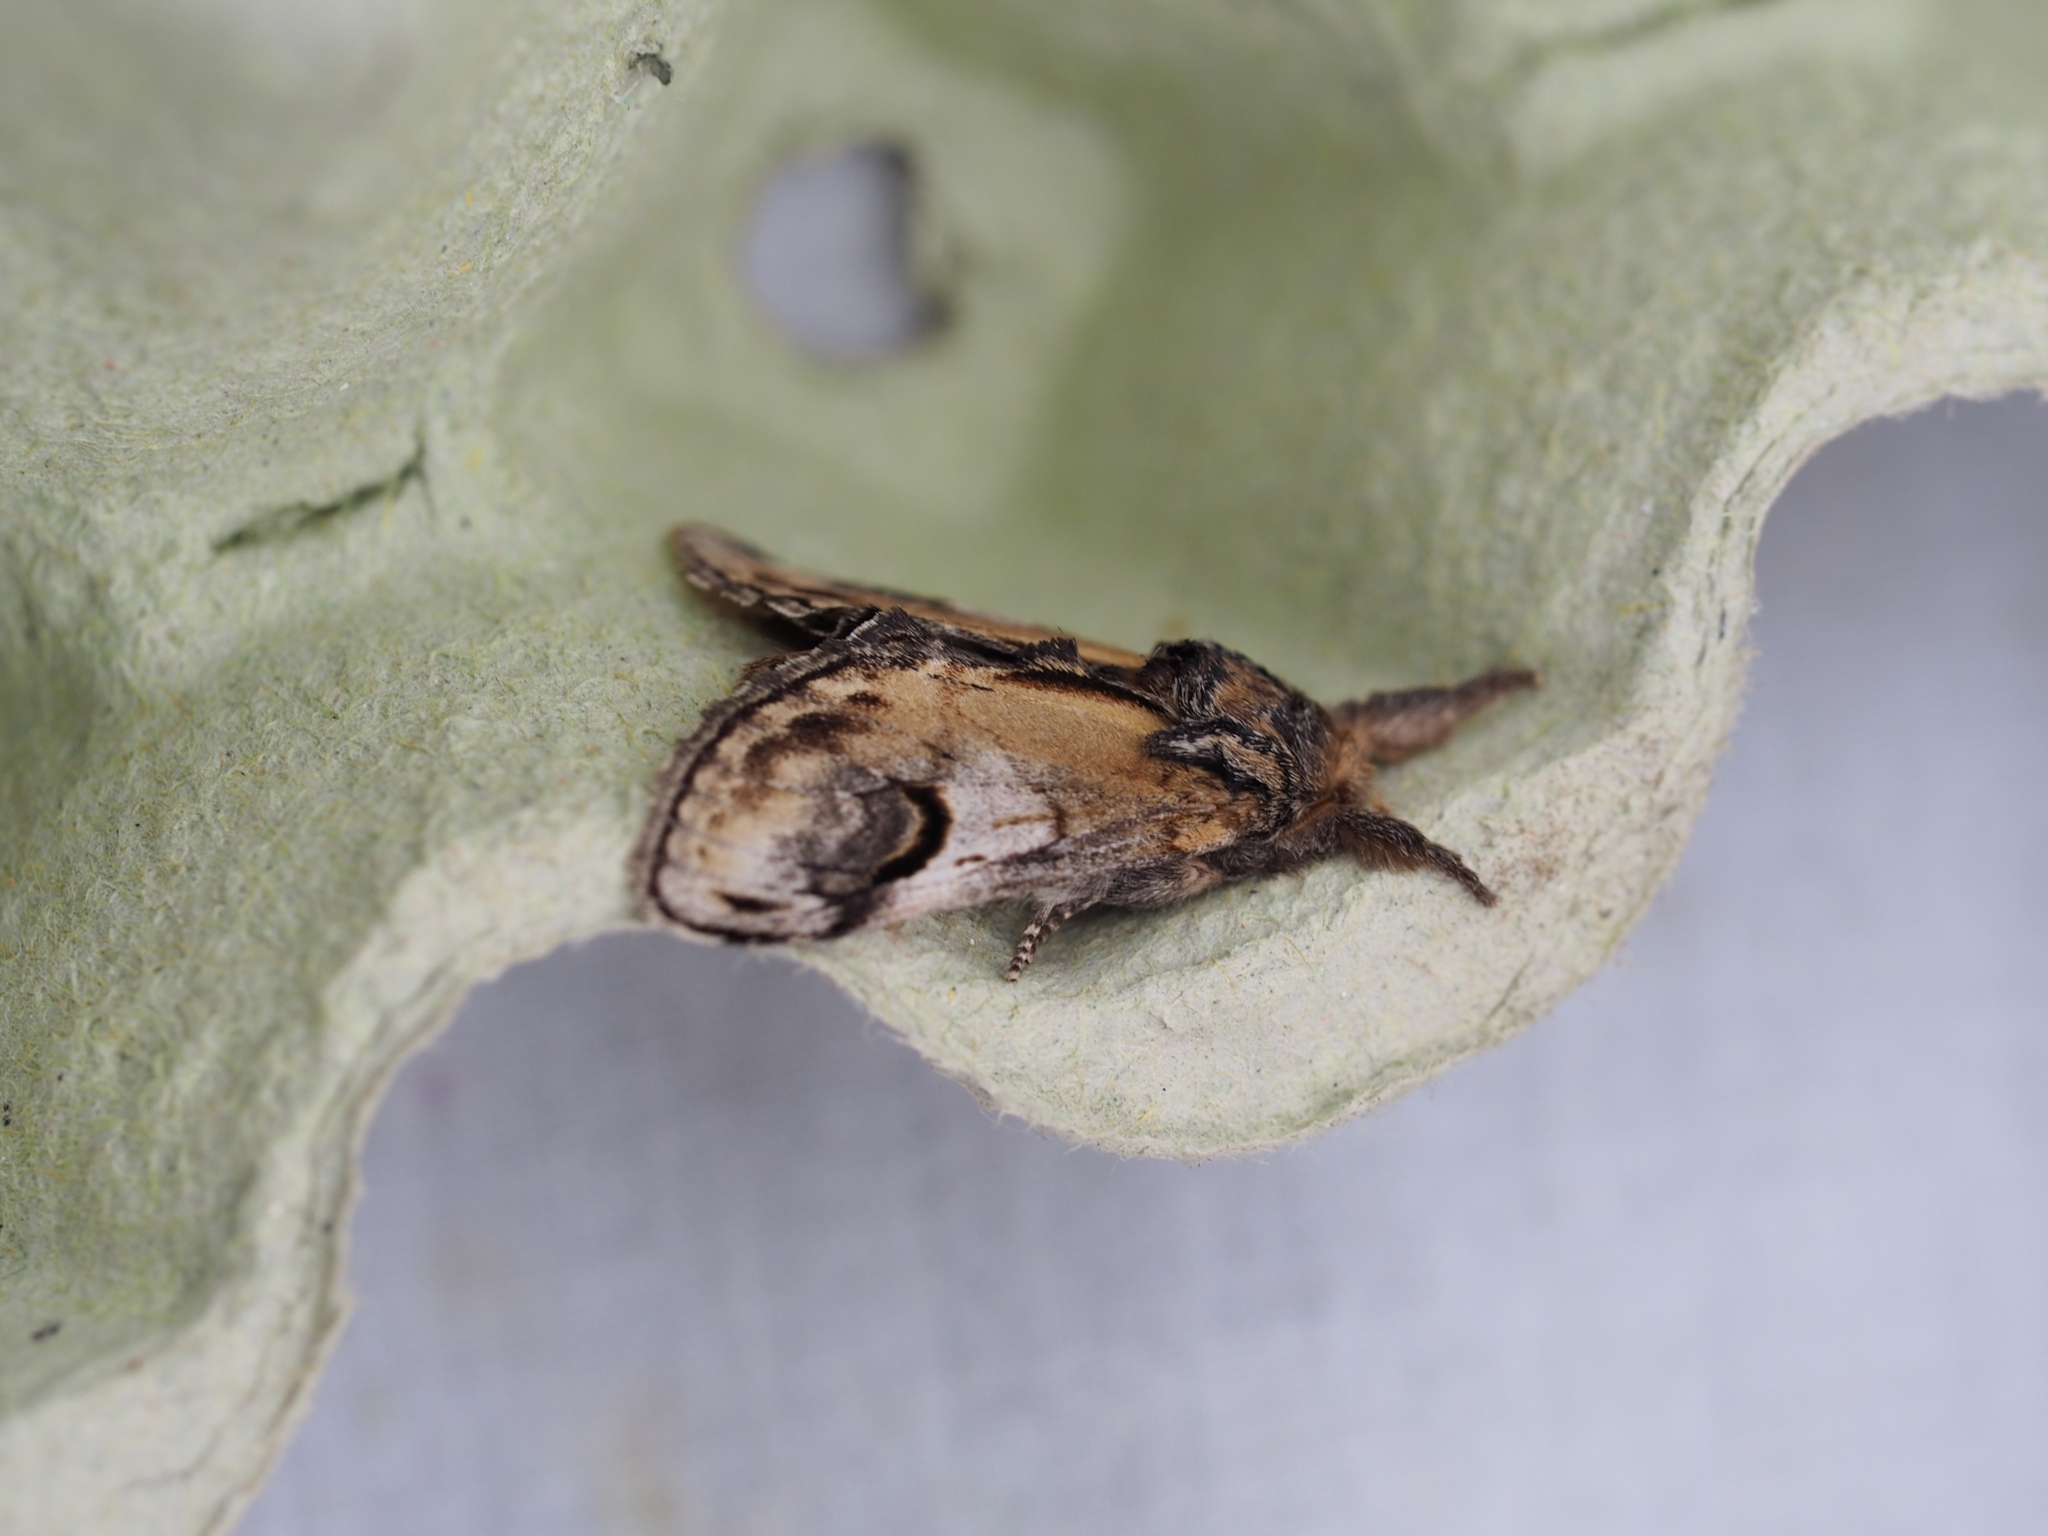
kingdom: Animalia
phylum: Arthropoda
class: Insecta
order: Lepidoptera
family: Notodontidae
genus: Notodonta
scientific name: Notodonta ziczac
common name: Pebble prominent
